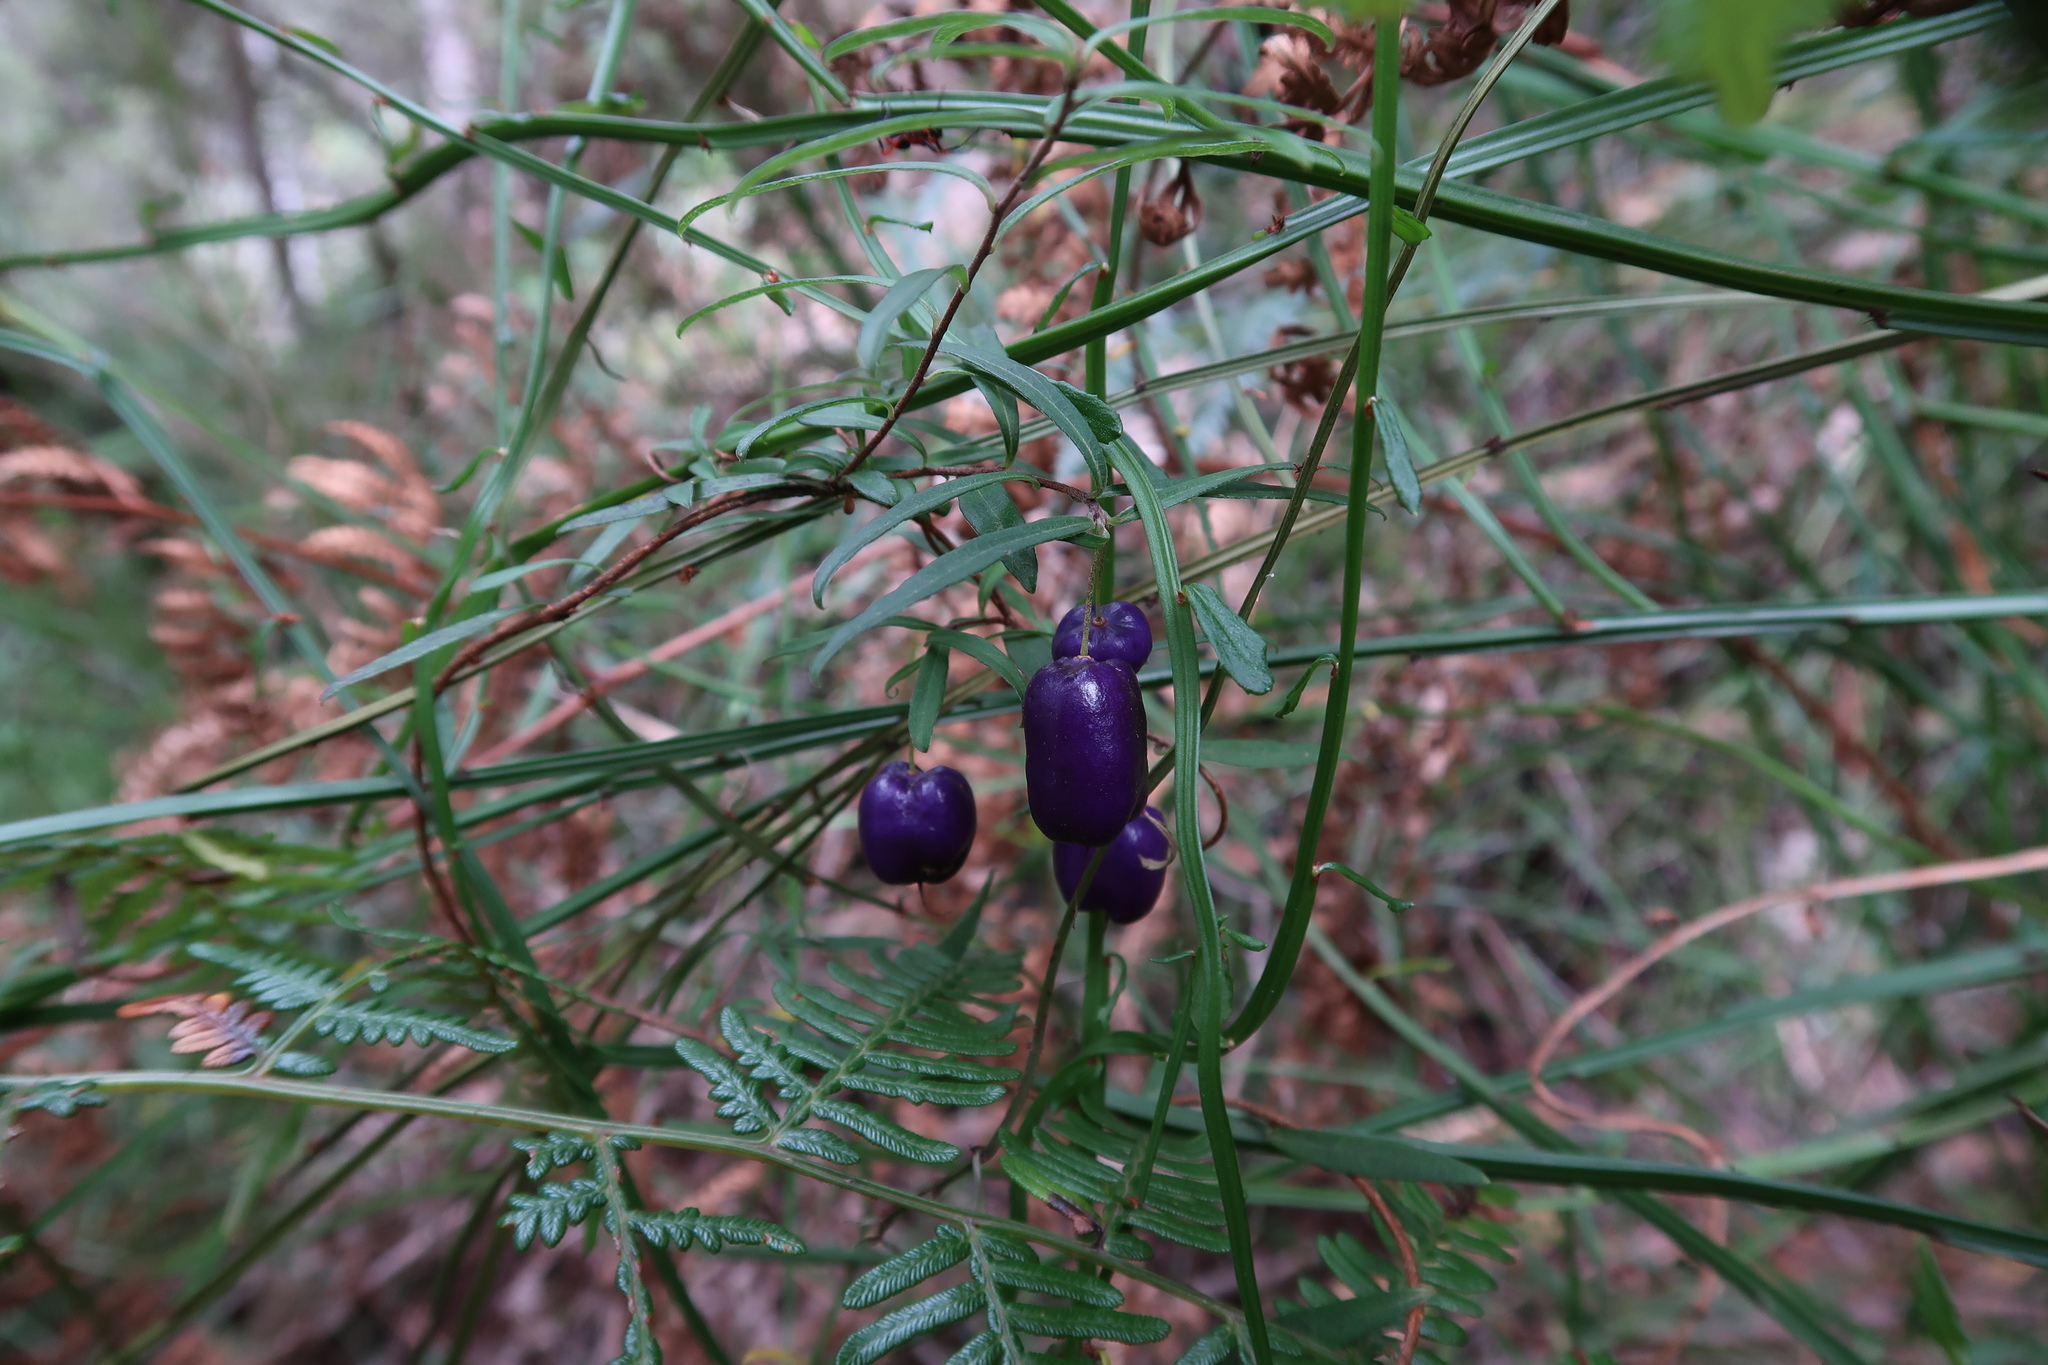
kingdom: Plantae
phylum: Tracheophyta
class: Magnoliopsida
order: Apiales
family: Pittosporaceae
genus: Billardiera
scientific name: Billardiera macrantha
